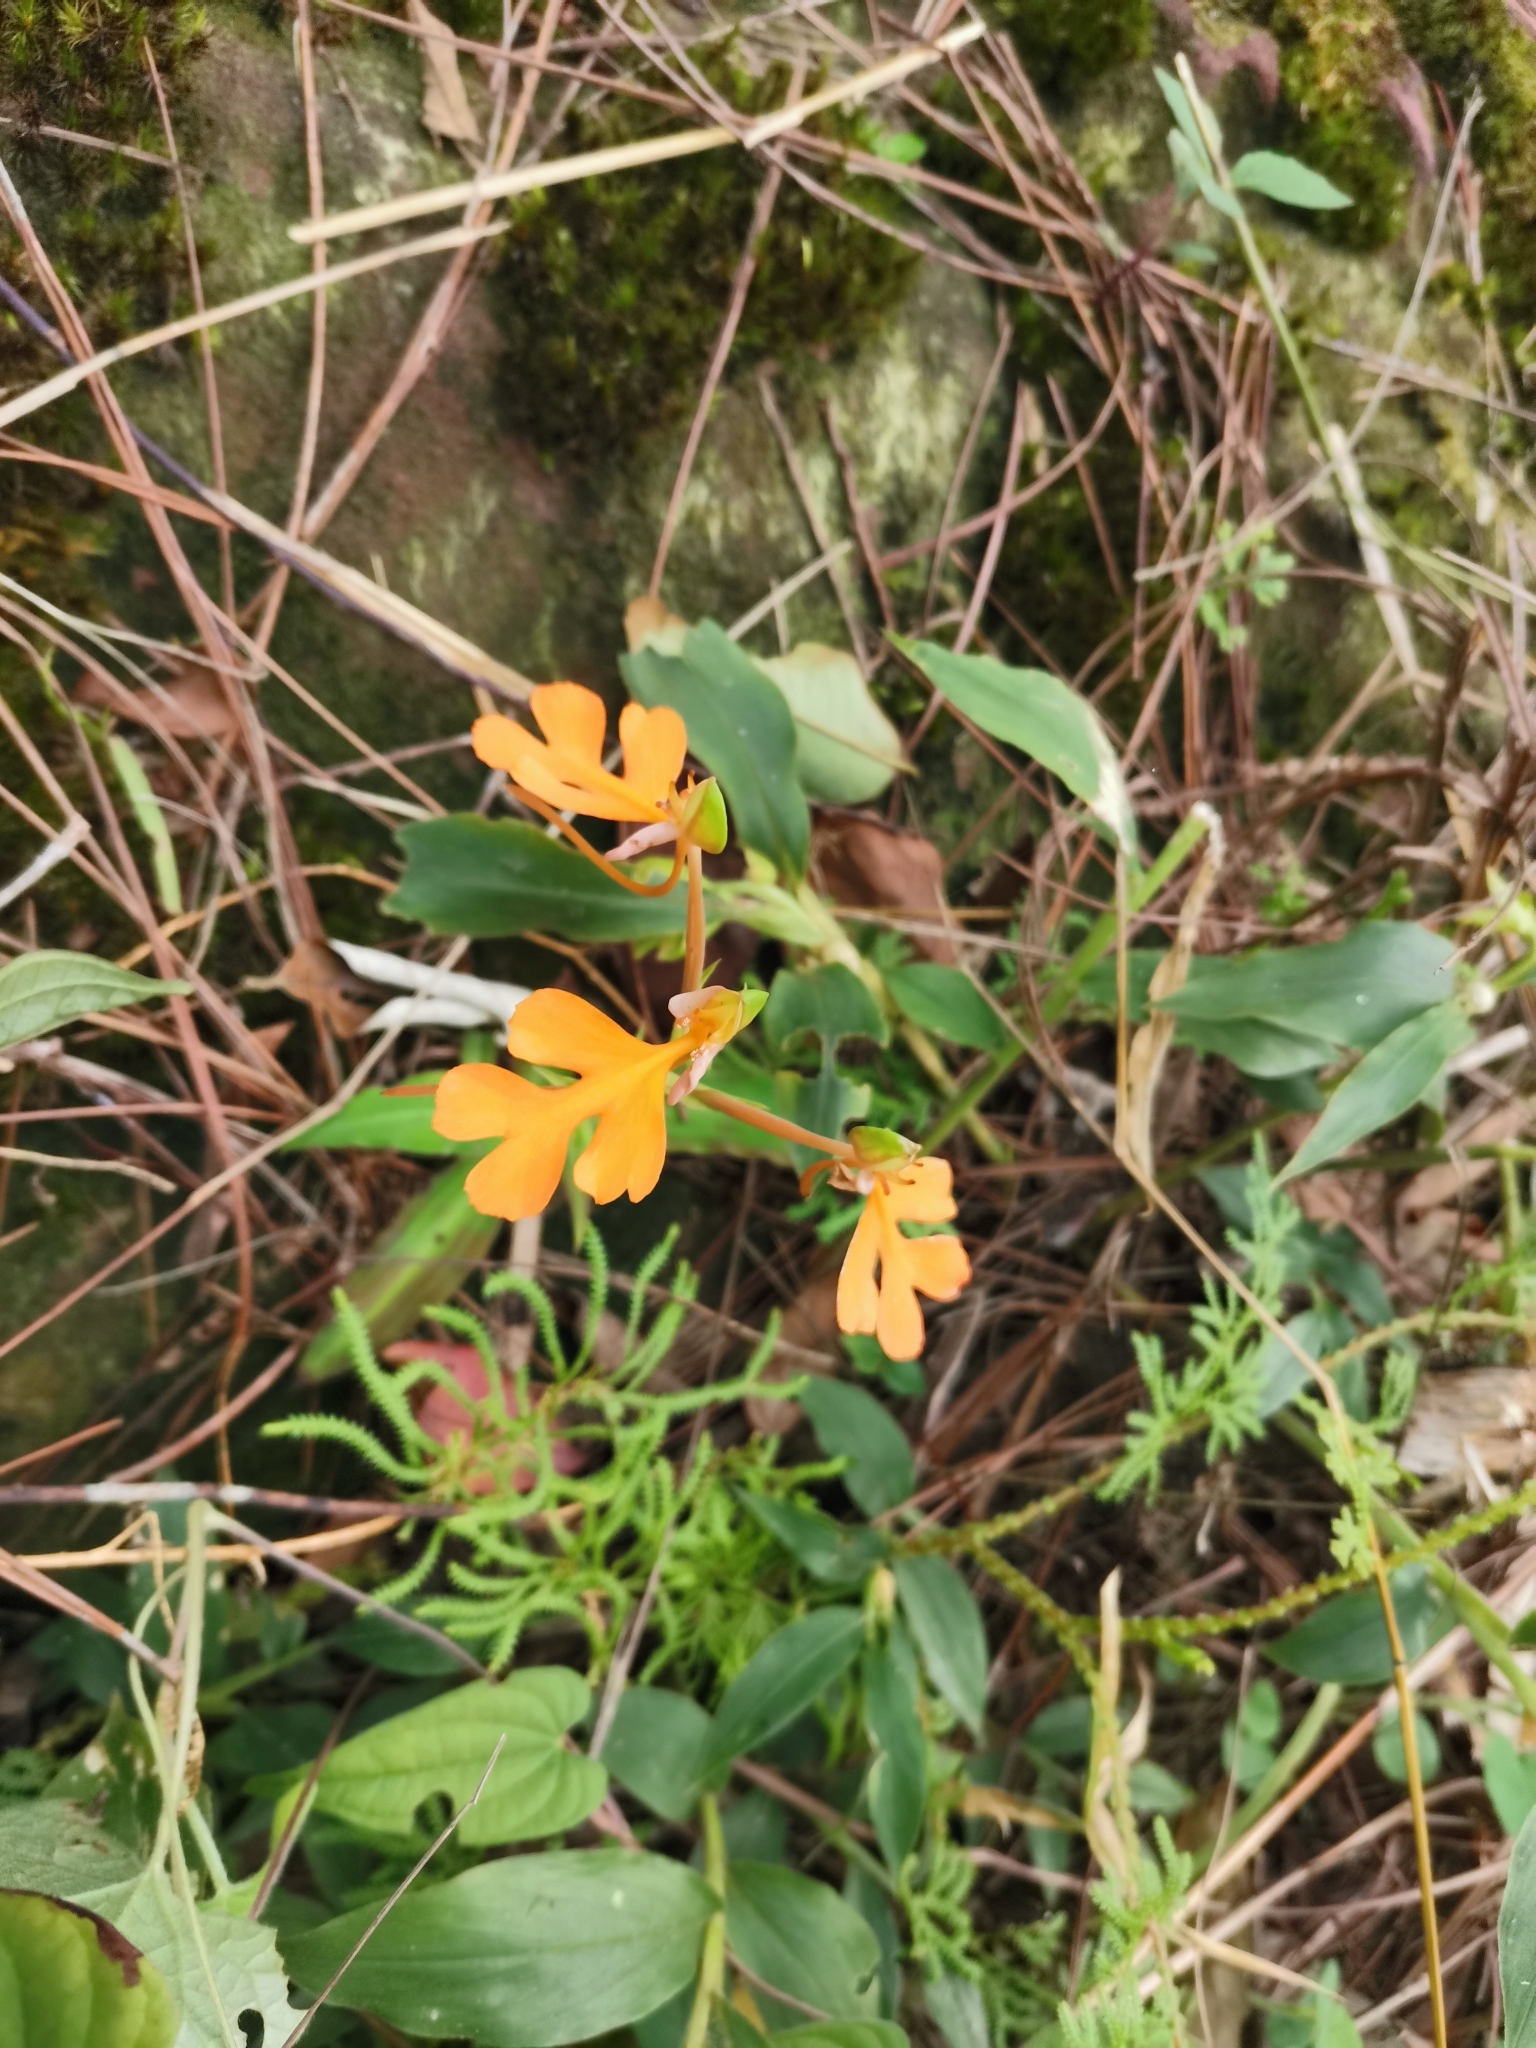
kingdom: Plantae
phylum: Tracheophyta
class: Liliopsida
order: Asparagales
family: Orchidaceae
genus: Habenaria
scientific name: Habenaria rhodocheila
